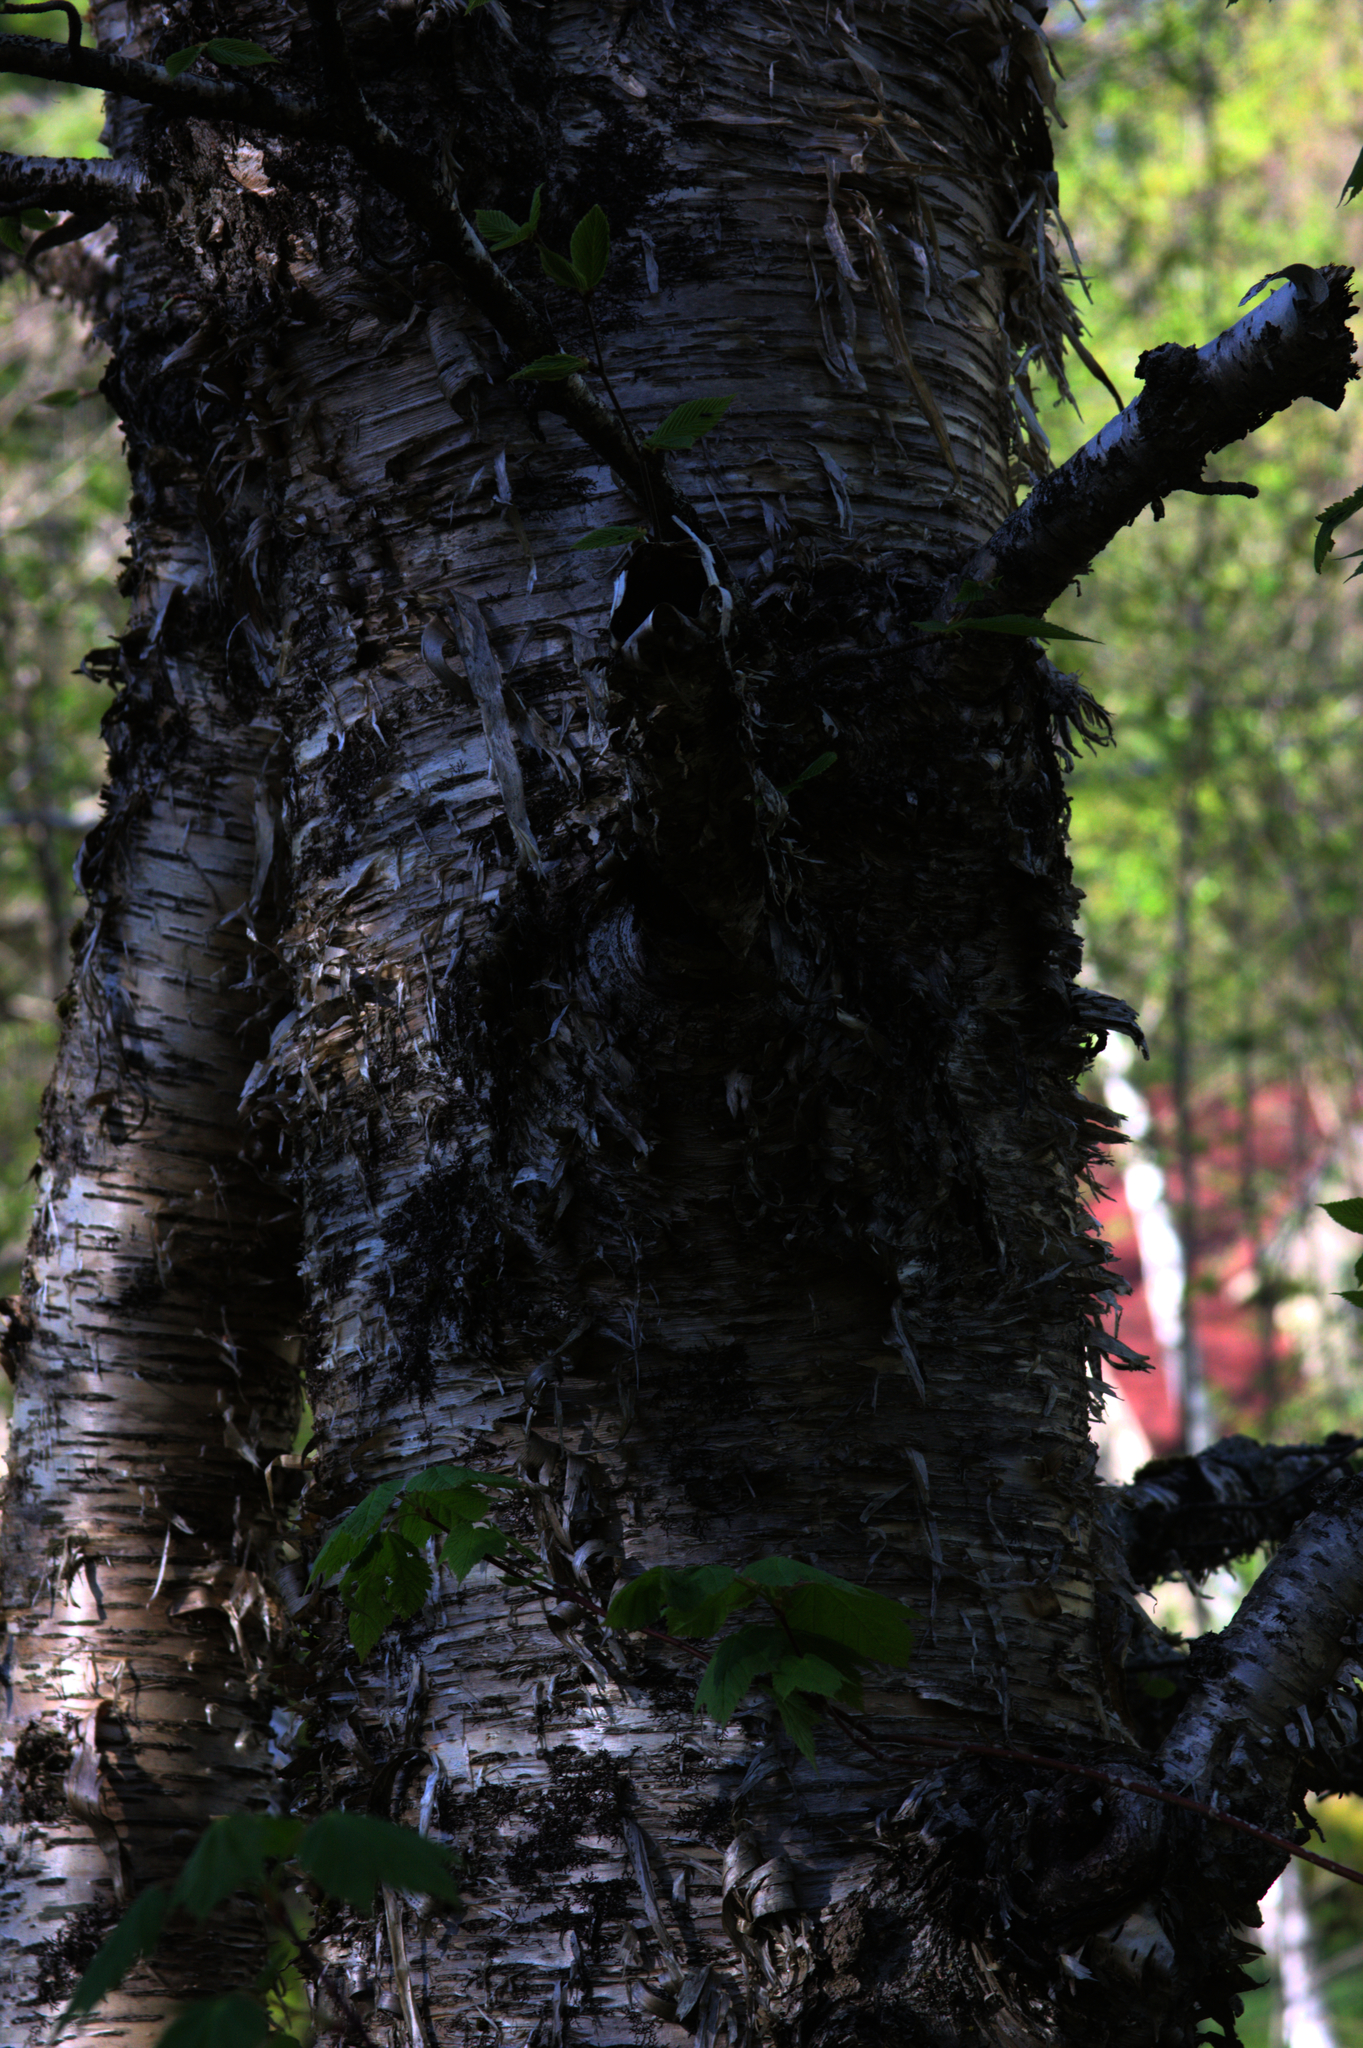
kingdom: Plantae
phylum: Tracheophyta
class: Magnoliopsida
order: Fagales
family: Betulaceae
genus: Betula
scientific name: Betula alleghaniensis
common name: Yellow birch
